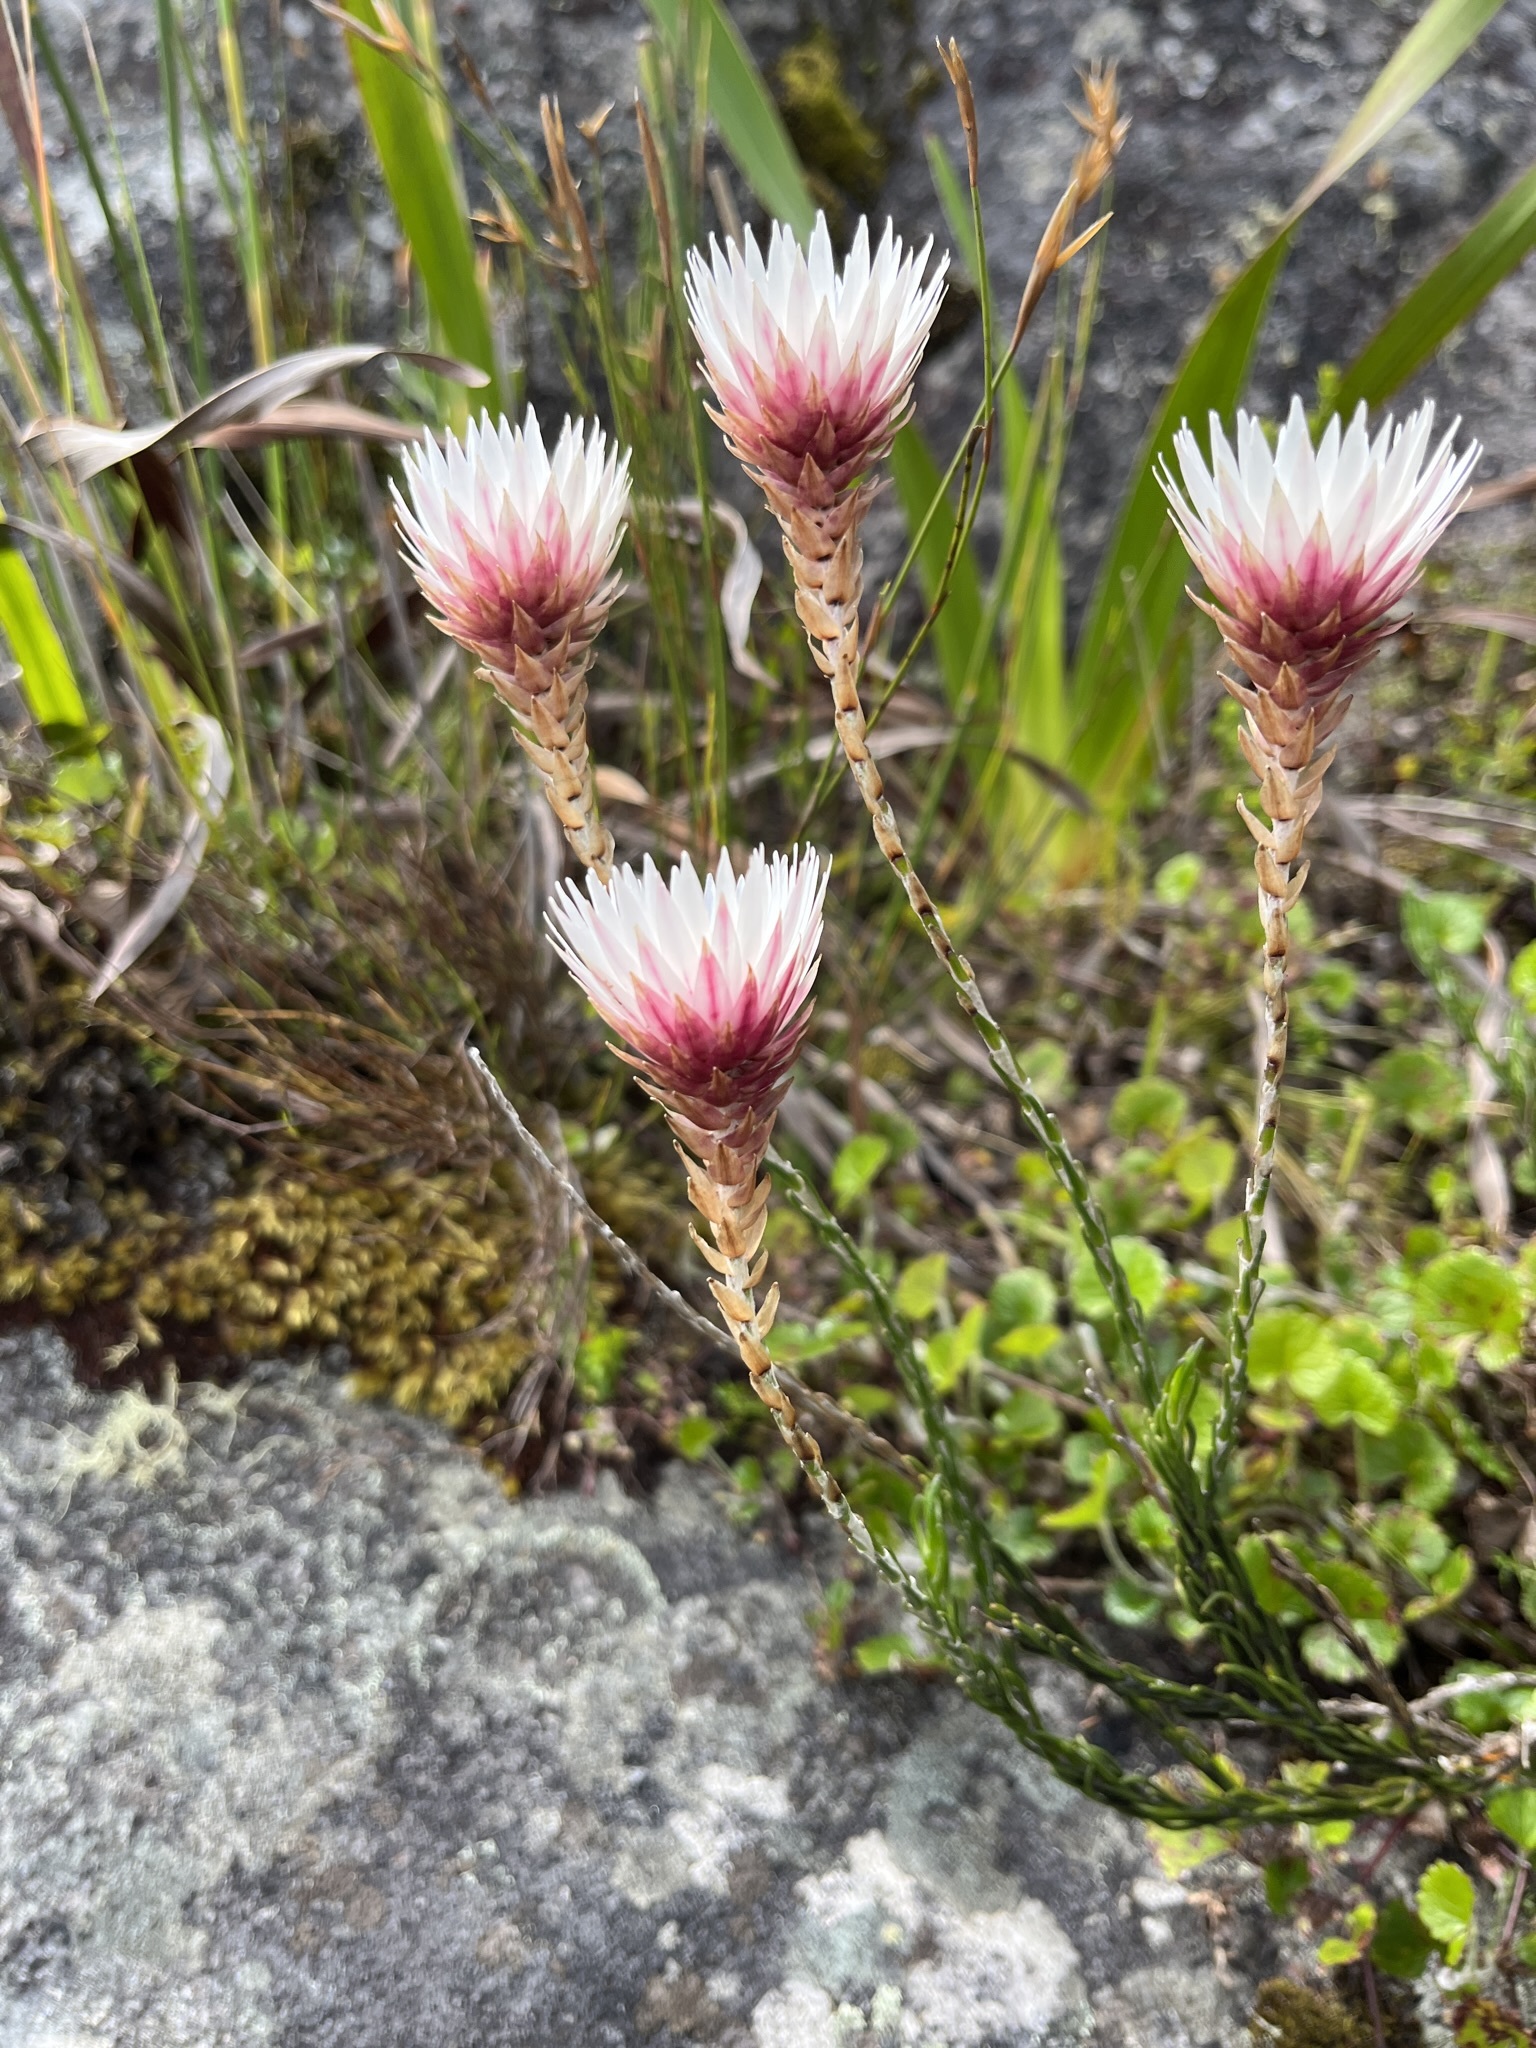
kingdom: Plantae
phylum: Tracheophyta
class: Magnoliopsida
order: Asterales
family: Asteraceae
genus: Edmondia
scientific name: Edmondia pinifolia
